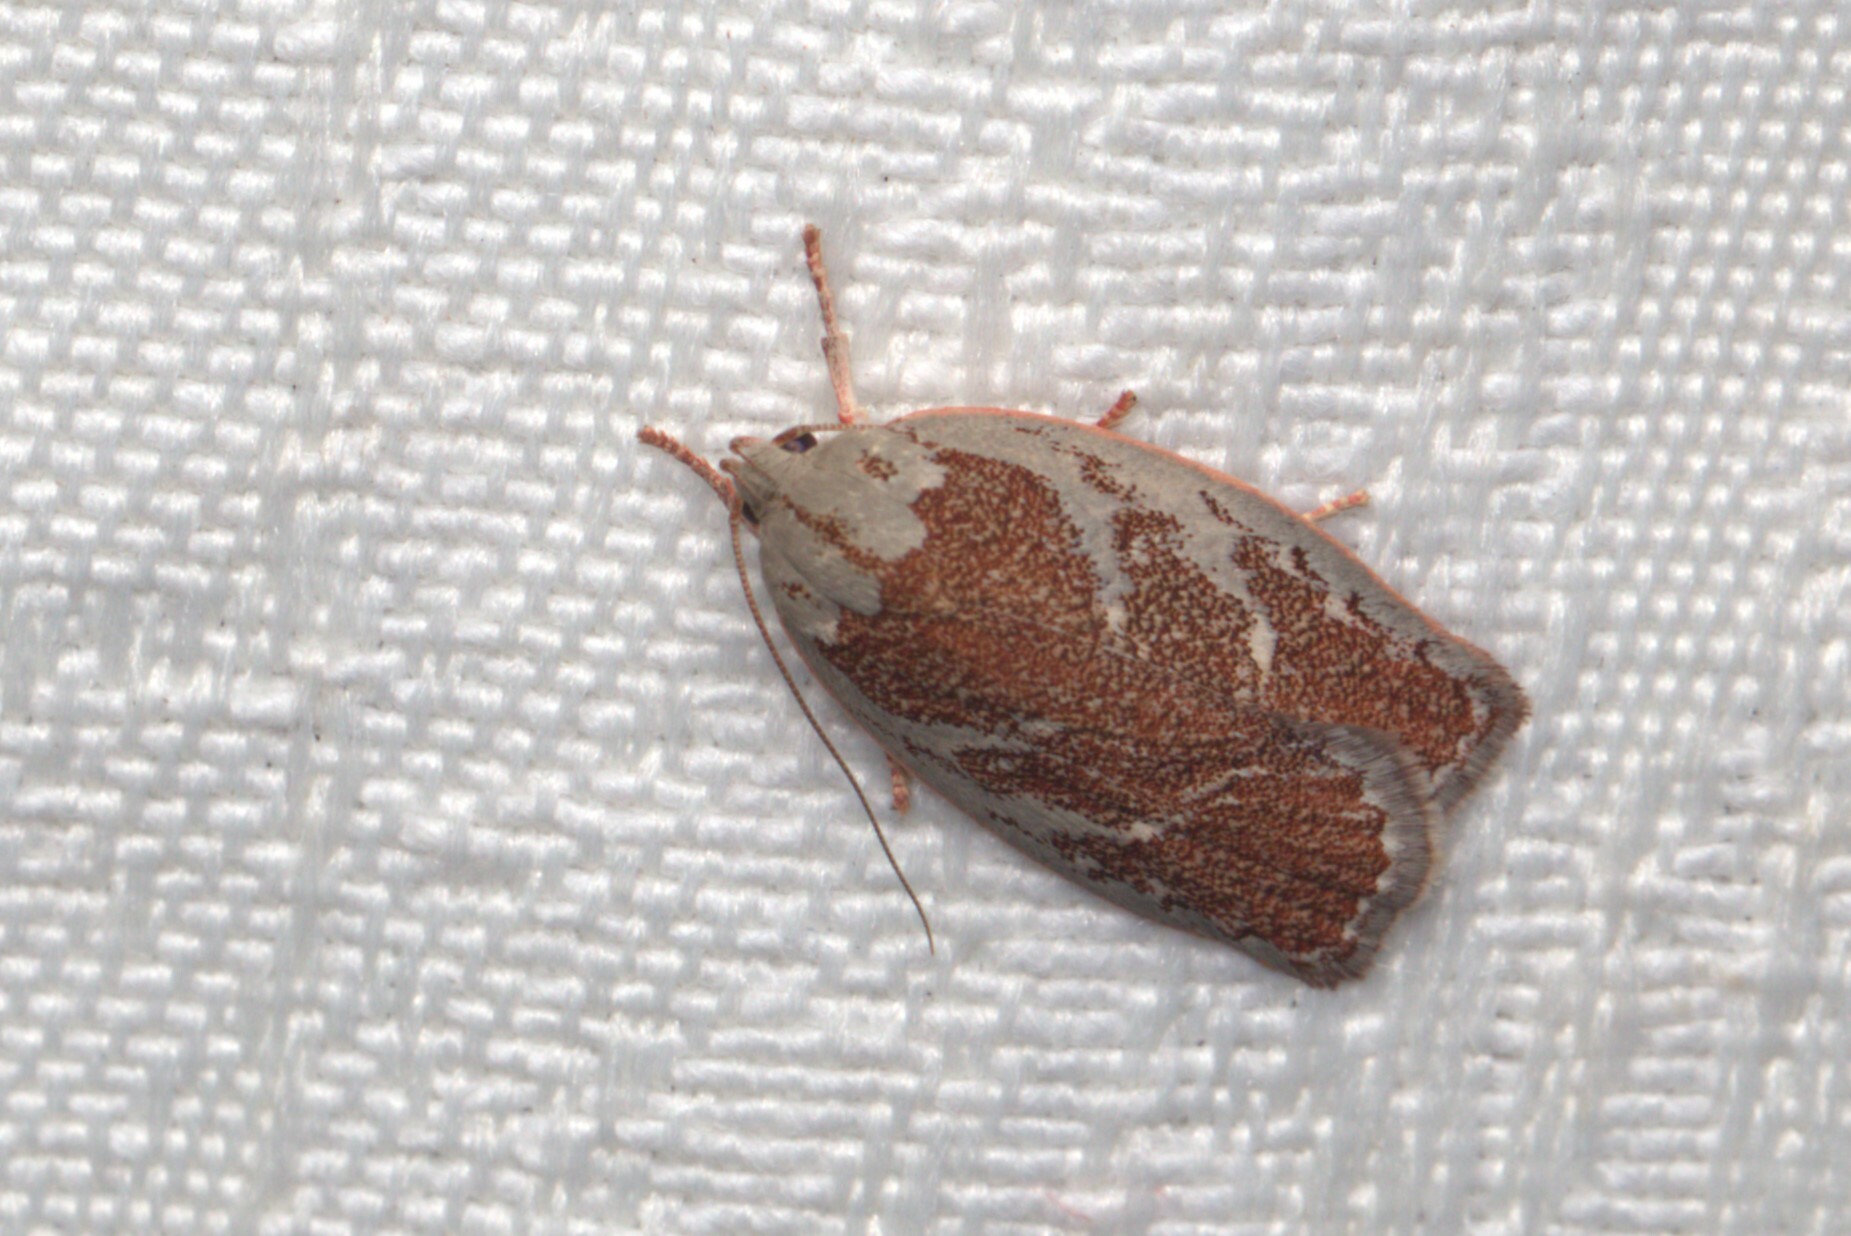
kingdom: Animalia
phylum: Arthropoda
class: Insecta
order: Lepidoptera
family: Oecophoridae
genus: Euchaetis
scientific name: Euchaetis rhizobola
